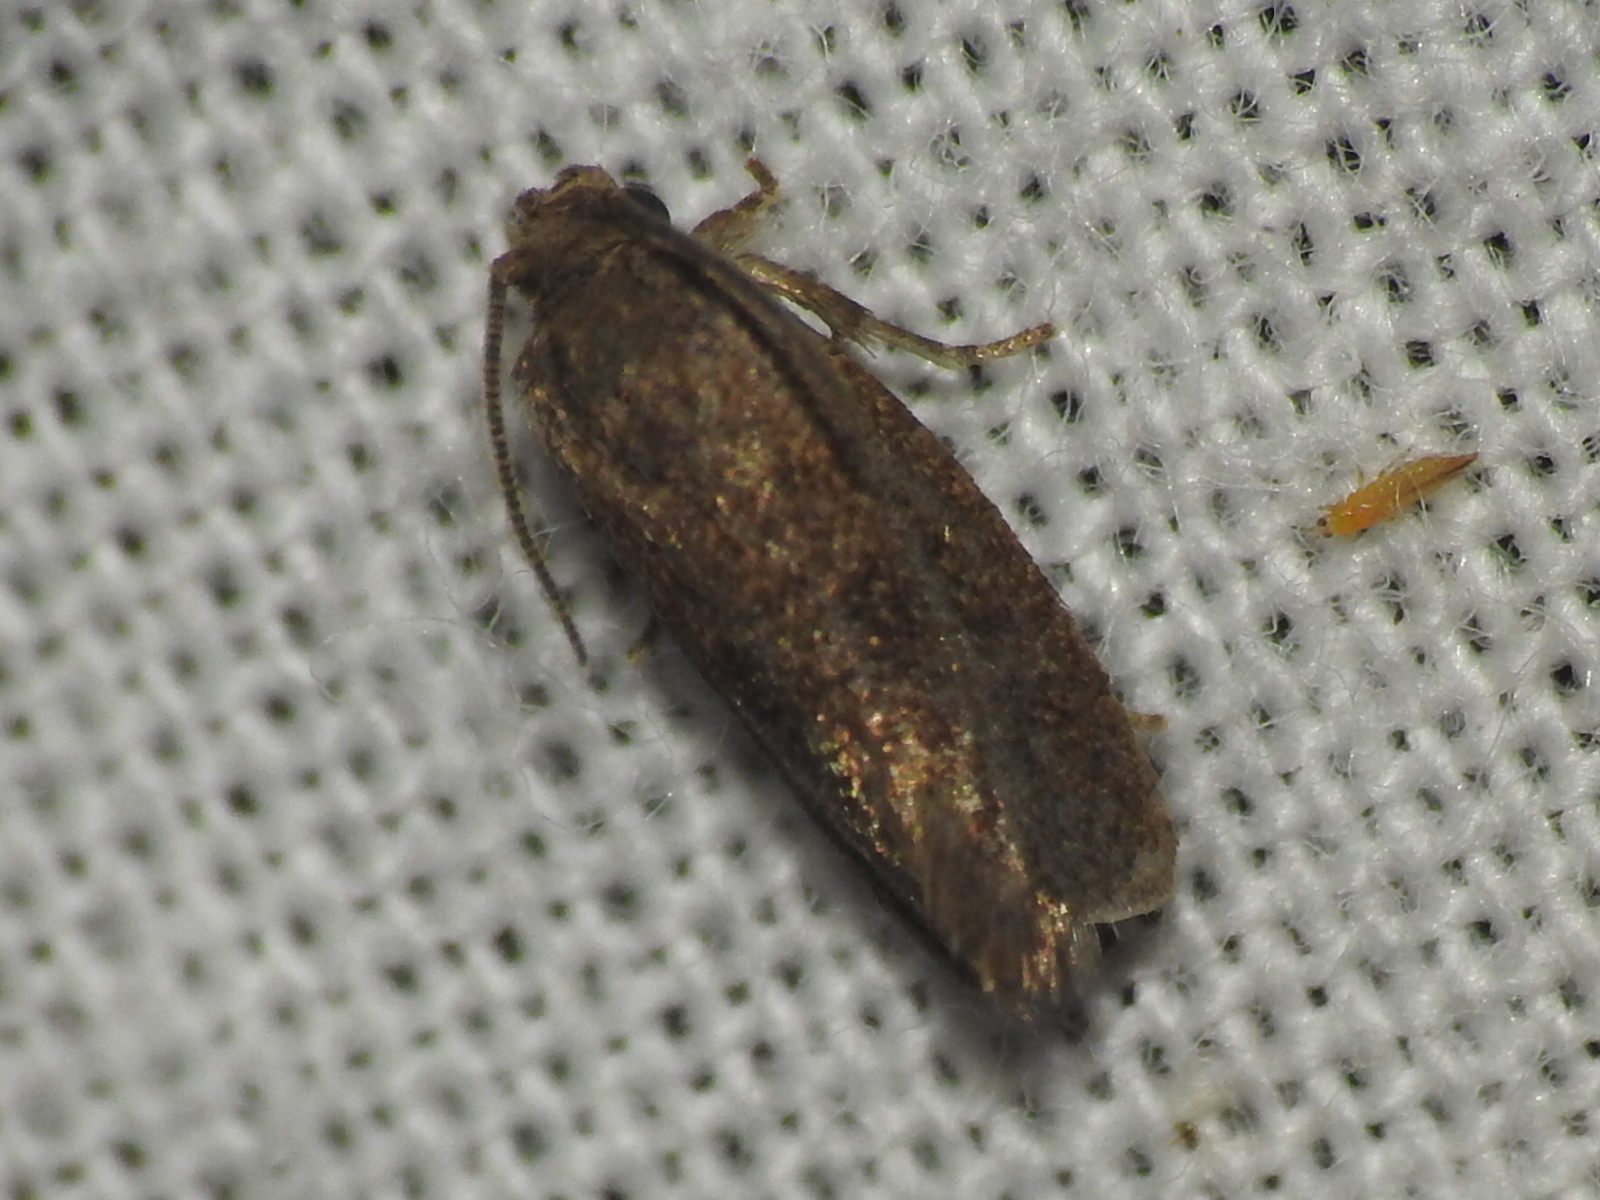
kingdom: Animalia
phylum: Arthropoda
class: Insecta
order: Lepidoptera
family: Tineidae
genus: Acrolophus
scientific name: Acrolophus heppneri
